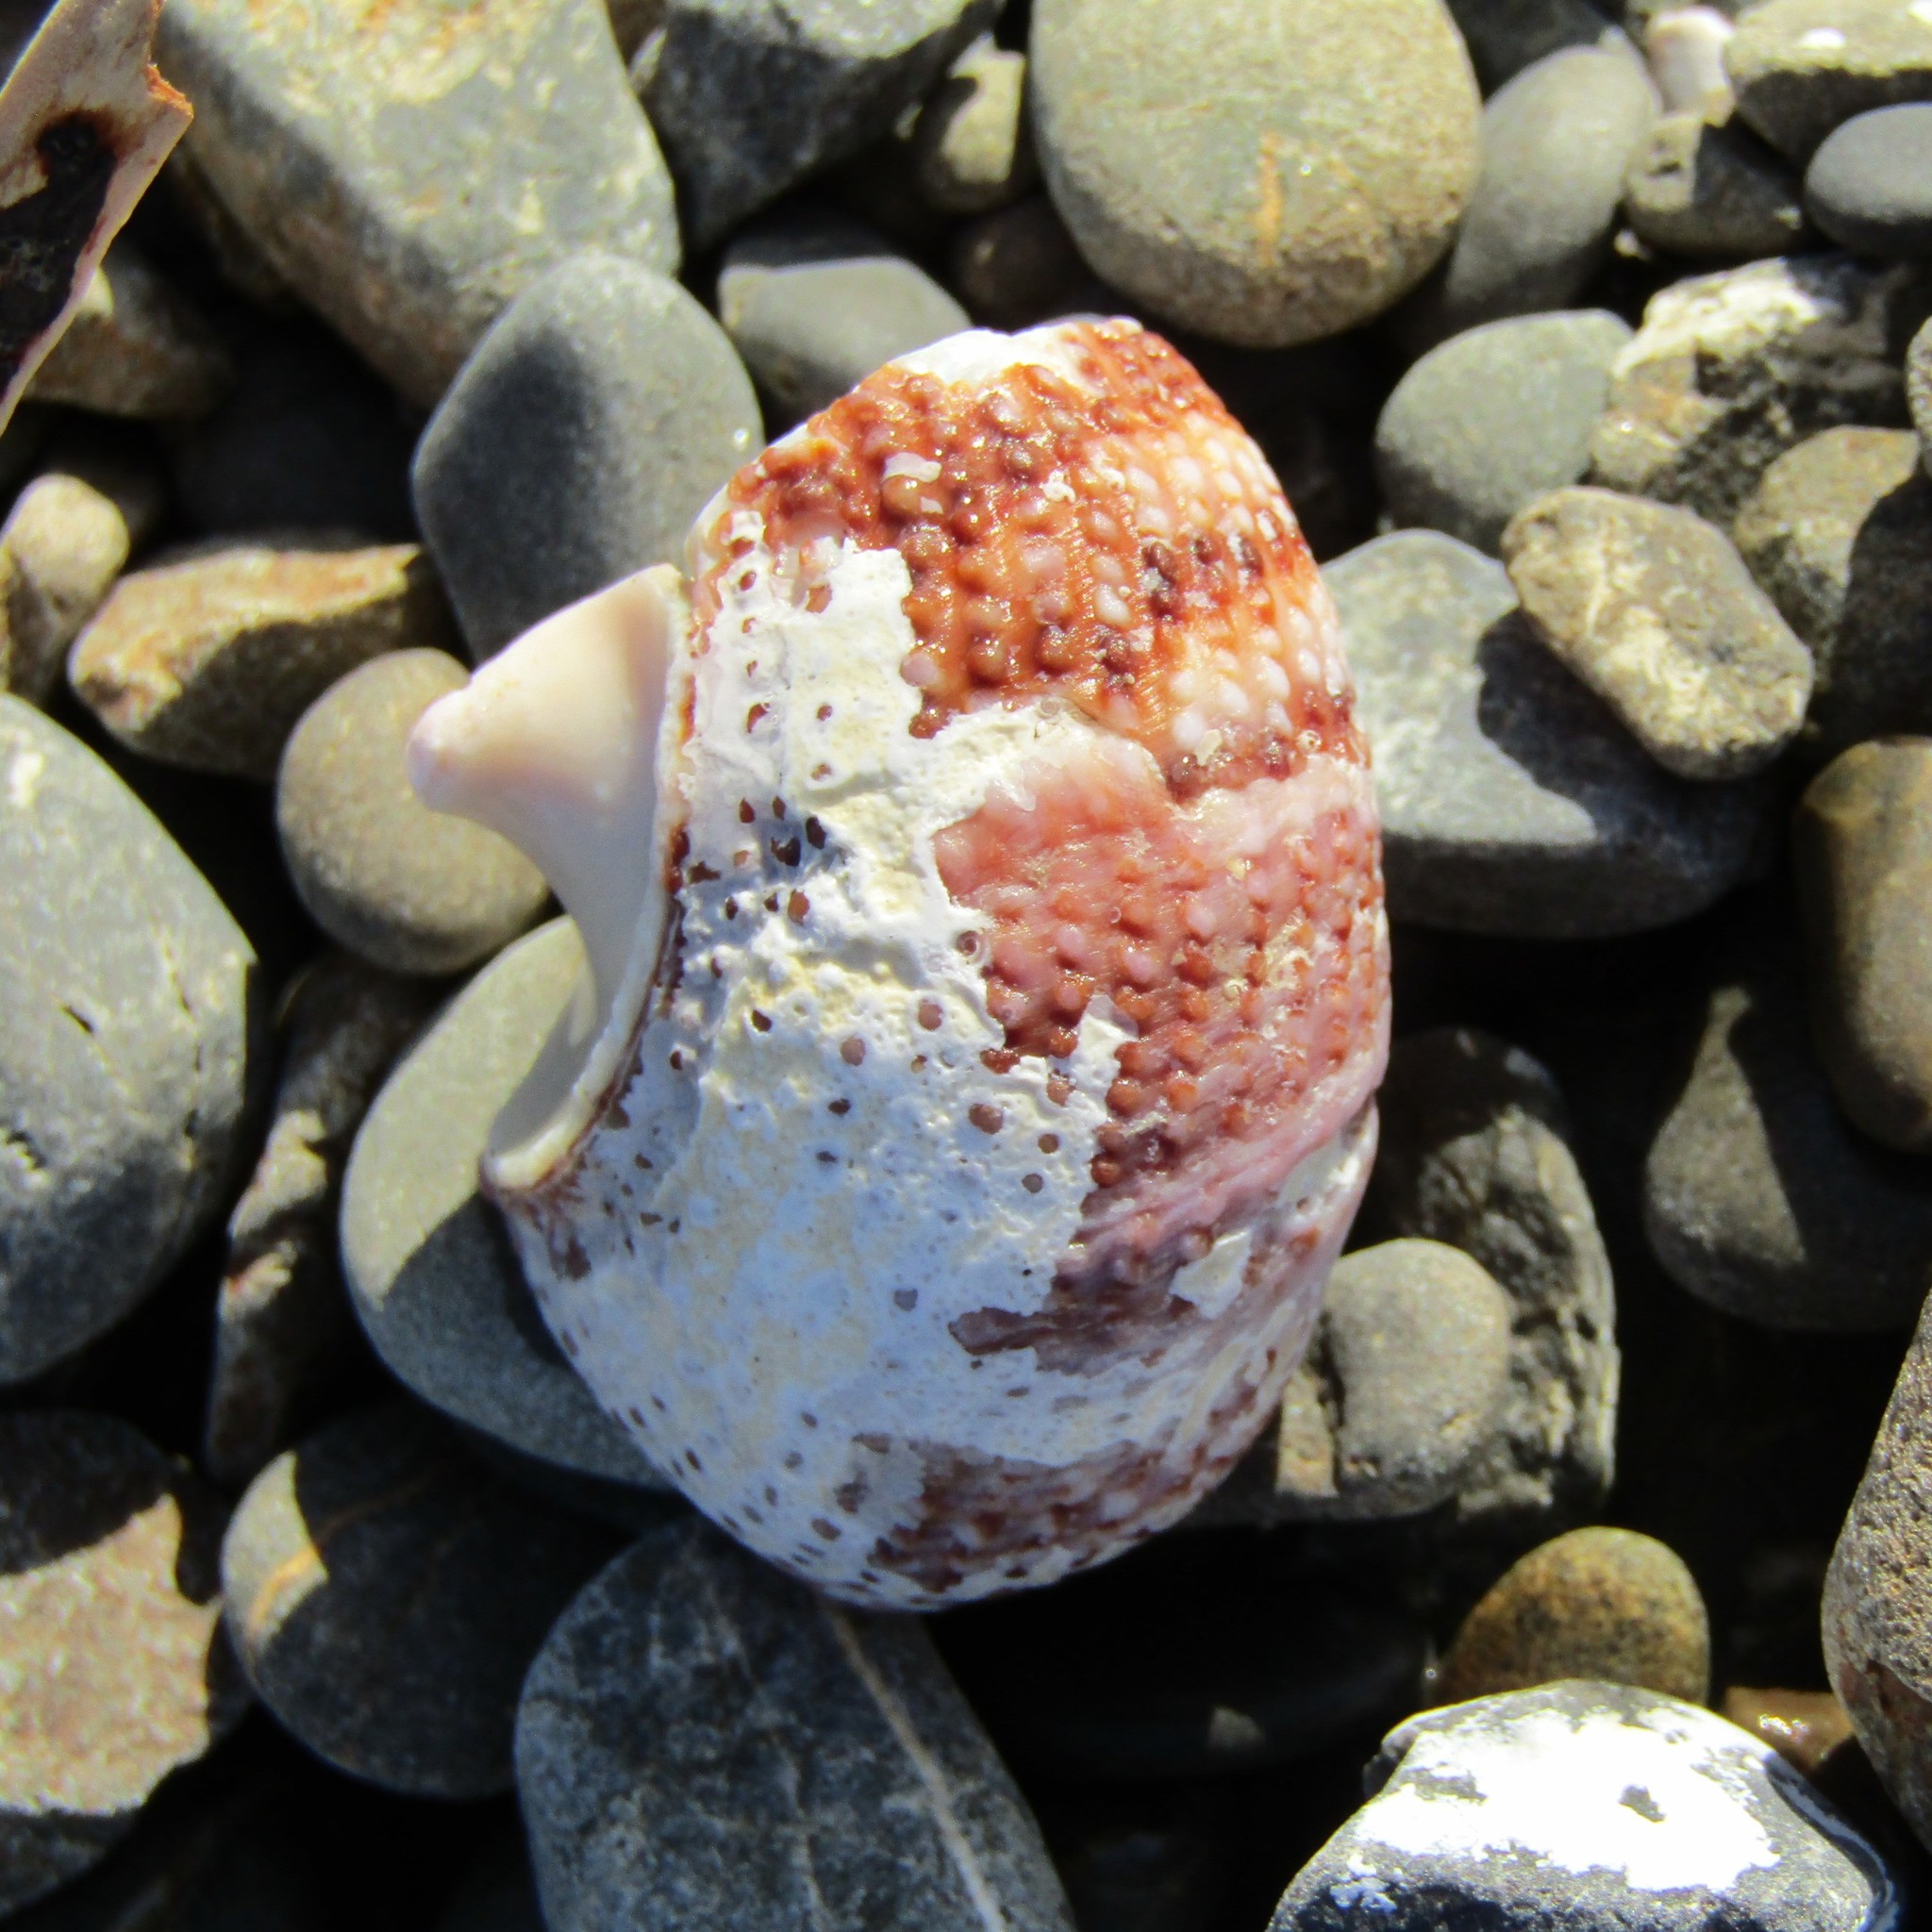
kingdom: Animalia
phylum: Mollusca
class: Gastropoda
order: Trochida
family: Turbinidae
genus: Modelia
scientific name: Modelia granosa
